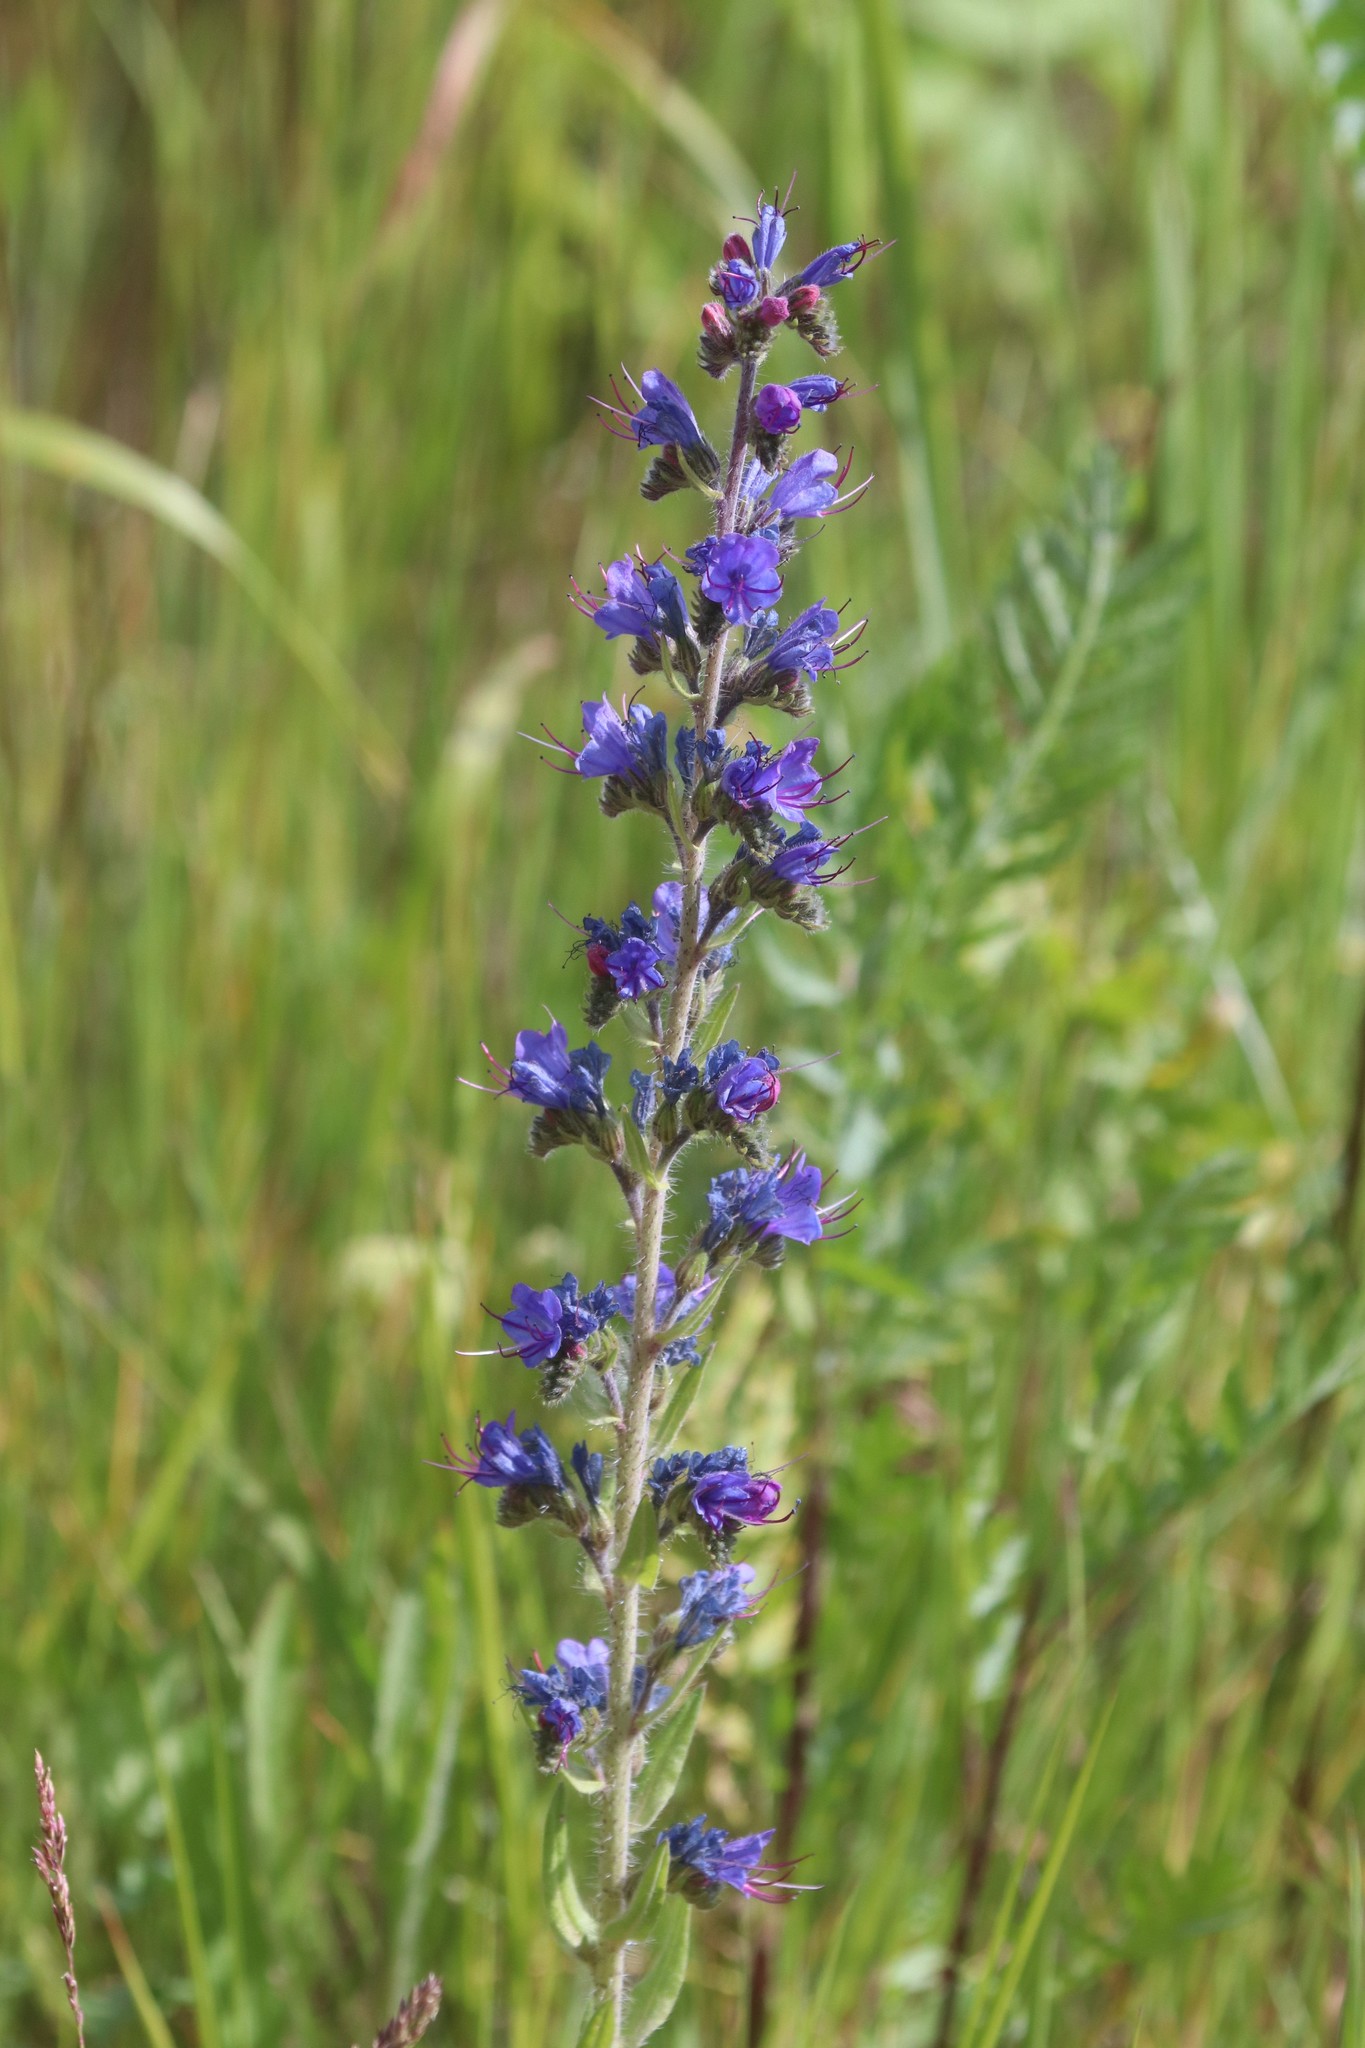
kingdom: Plantae
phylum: Tracheophyta
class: Magnoliopsida
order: Boraginales
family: Boraginaceae
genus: Echium
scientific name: Echium vulgare
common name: Common viper's bugloss
